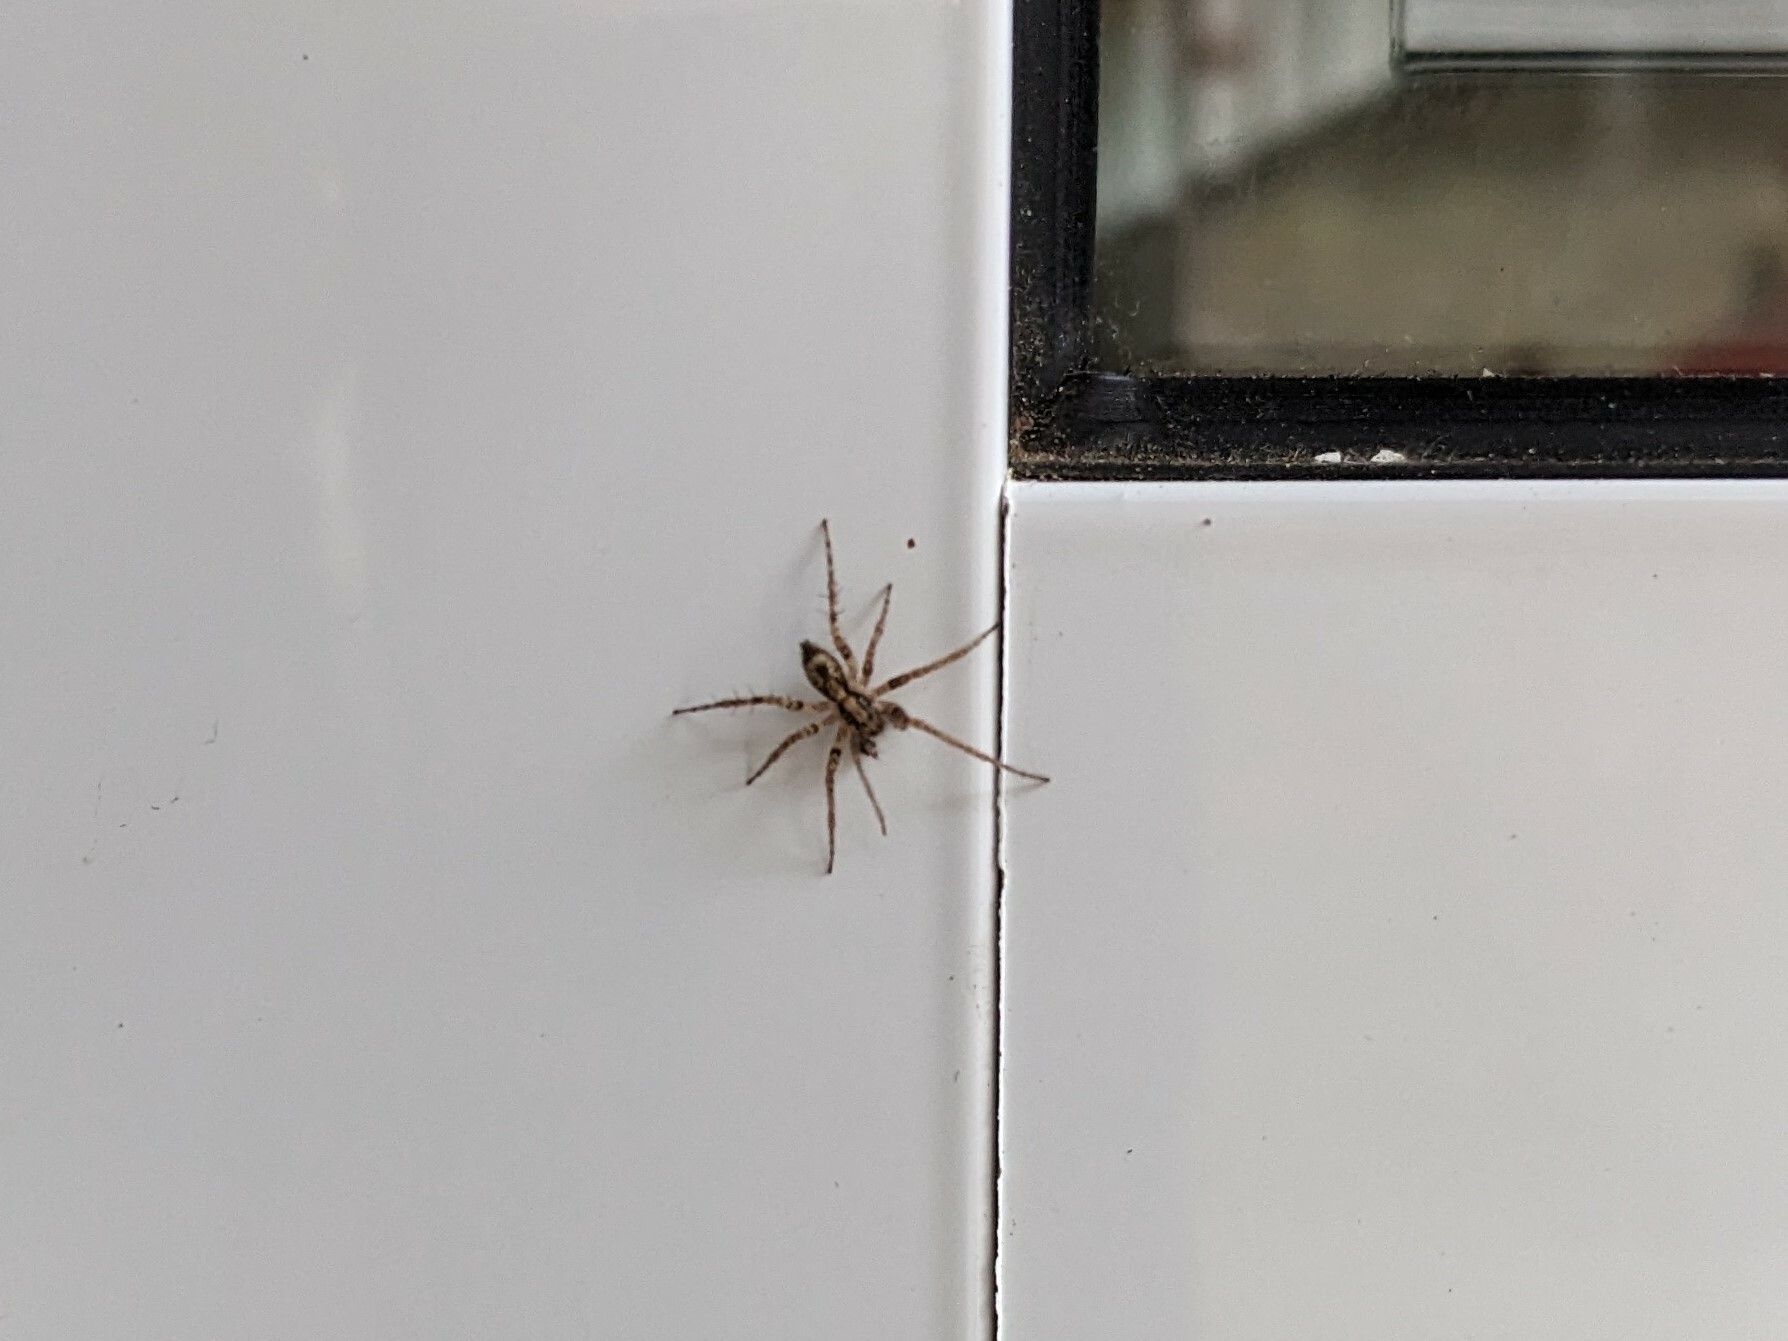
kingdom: Animalia
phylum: Arthropoda
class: Arachnida
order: Araneae
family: Anyphaenidae
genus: Anyphaena
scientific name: Anyphaena accentuata
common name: Buzzing spider
